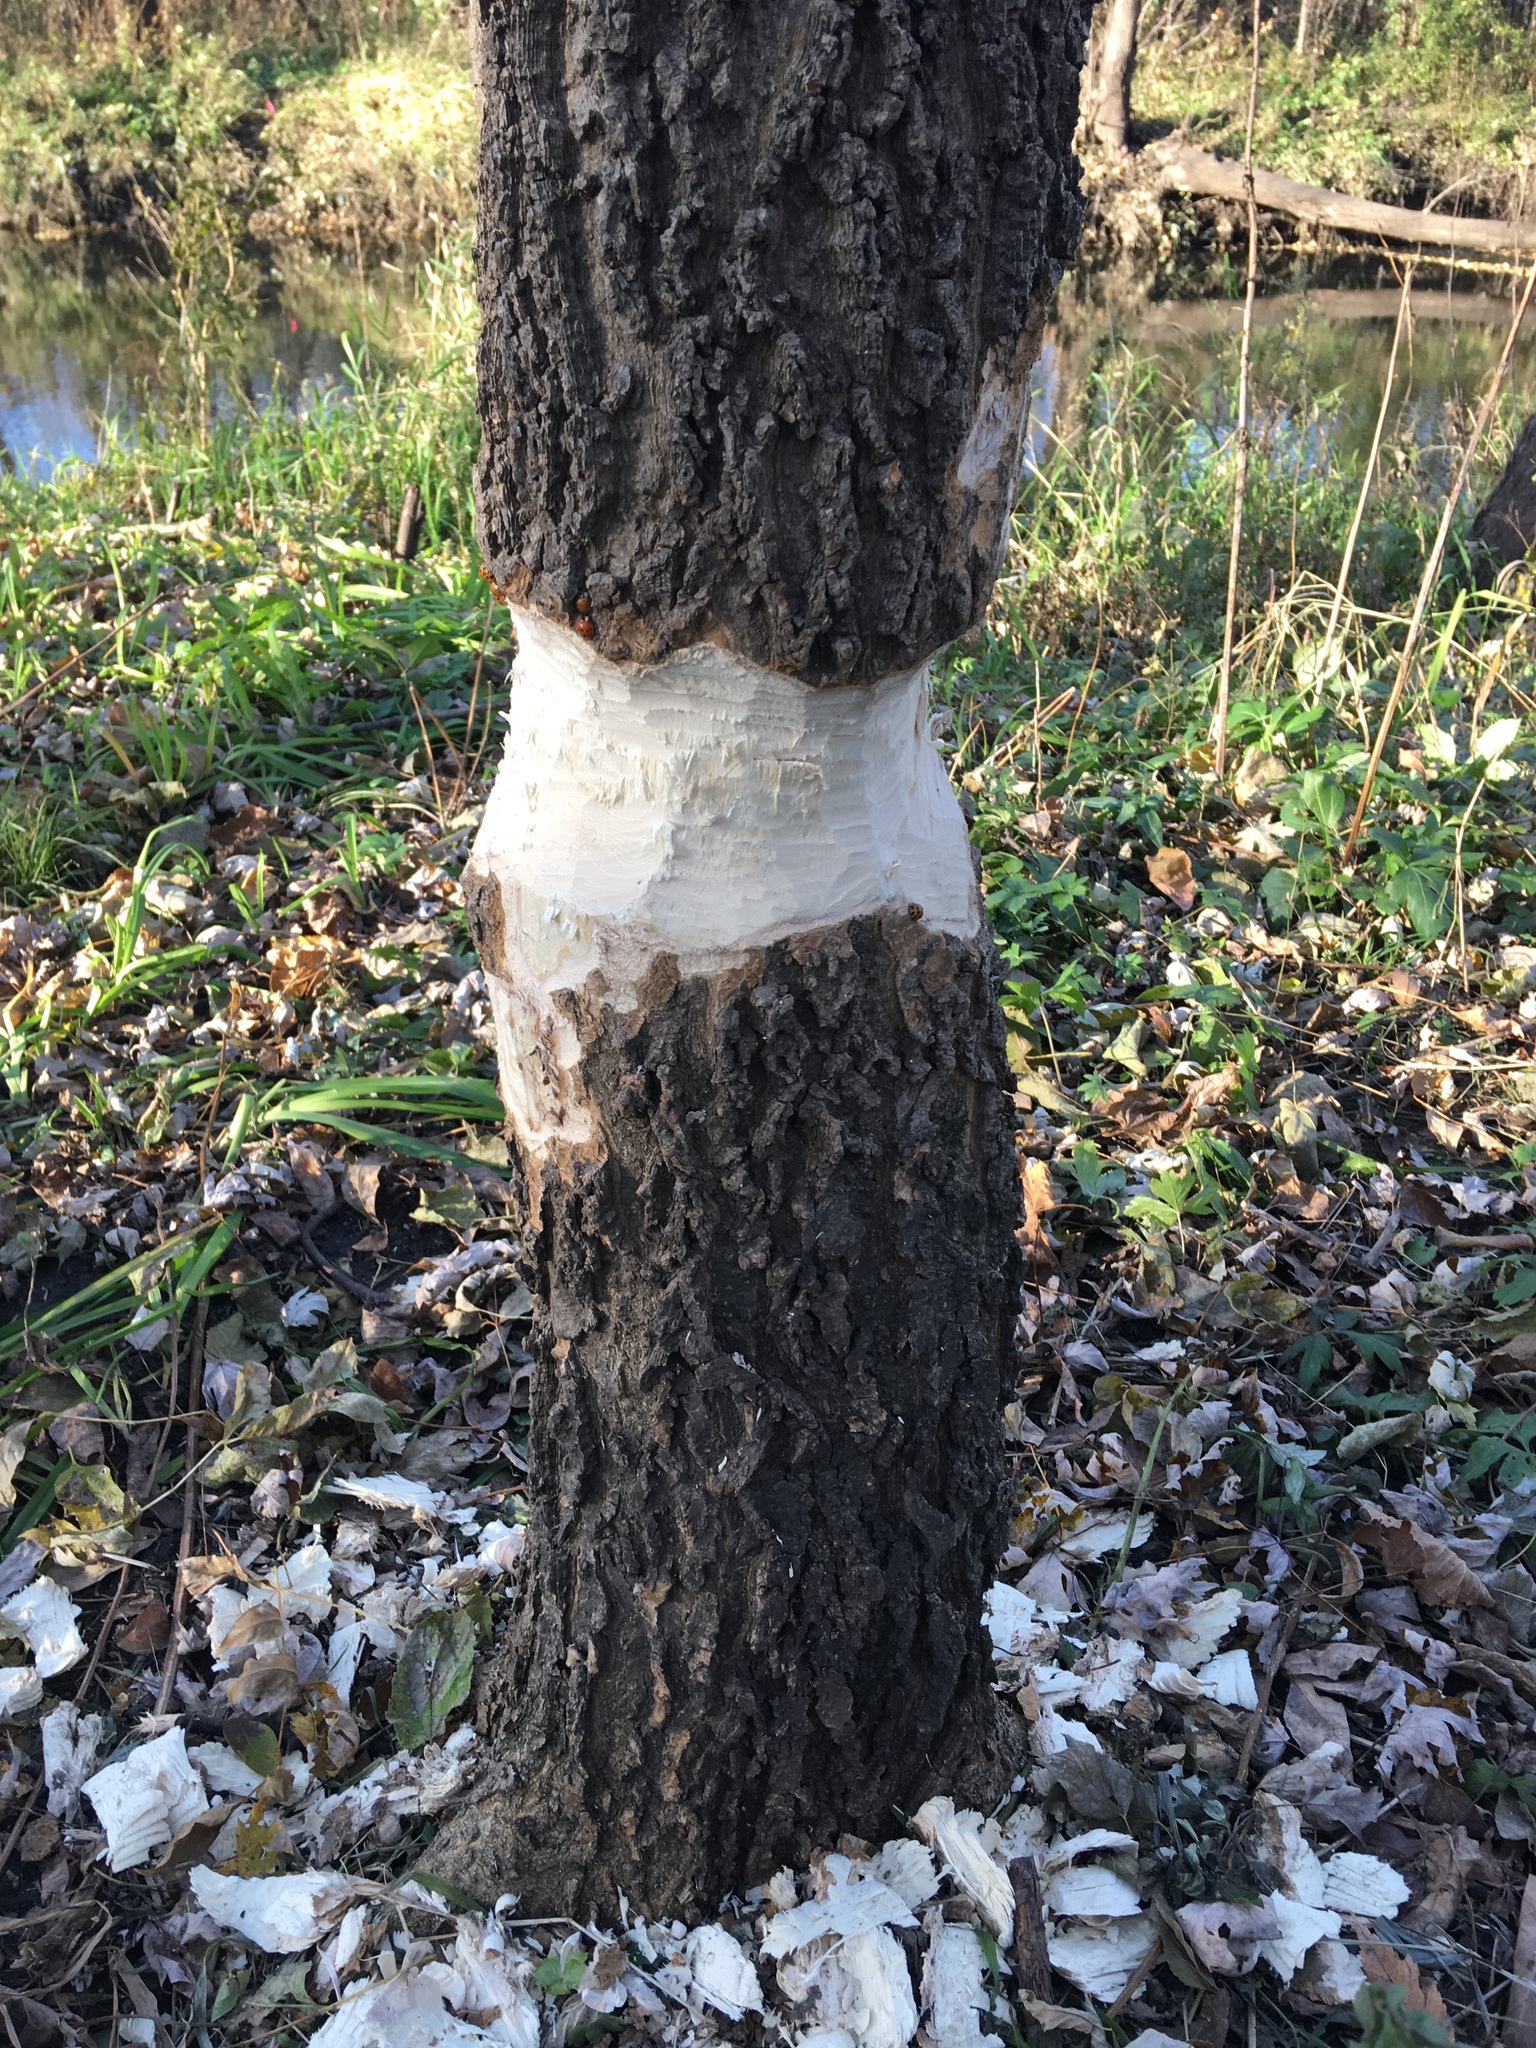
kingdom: Animalia
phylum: Chordata
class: Mammalia
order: Rodentia
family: Castoridae
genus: Castor
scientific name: Castor canadensis
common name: American beaver
